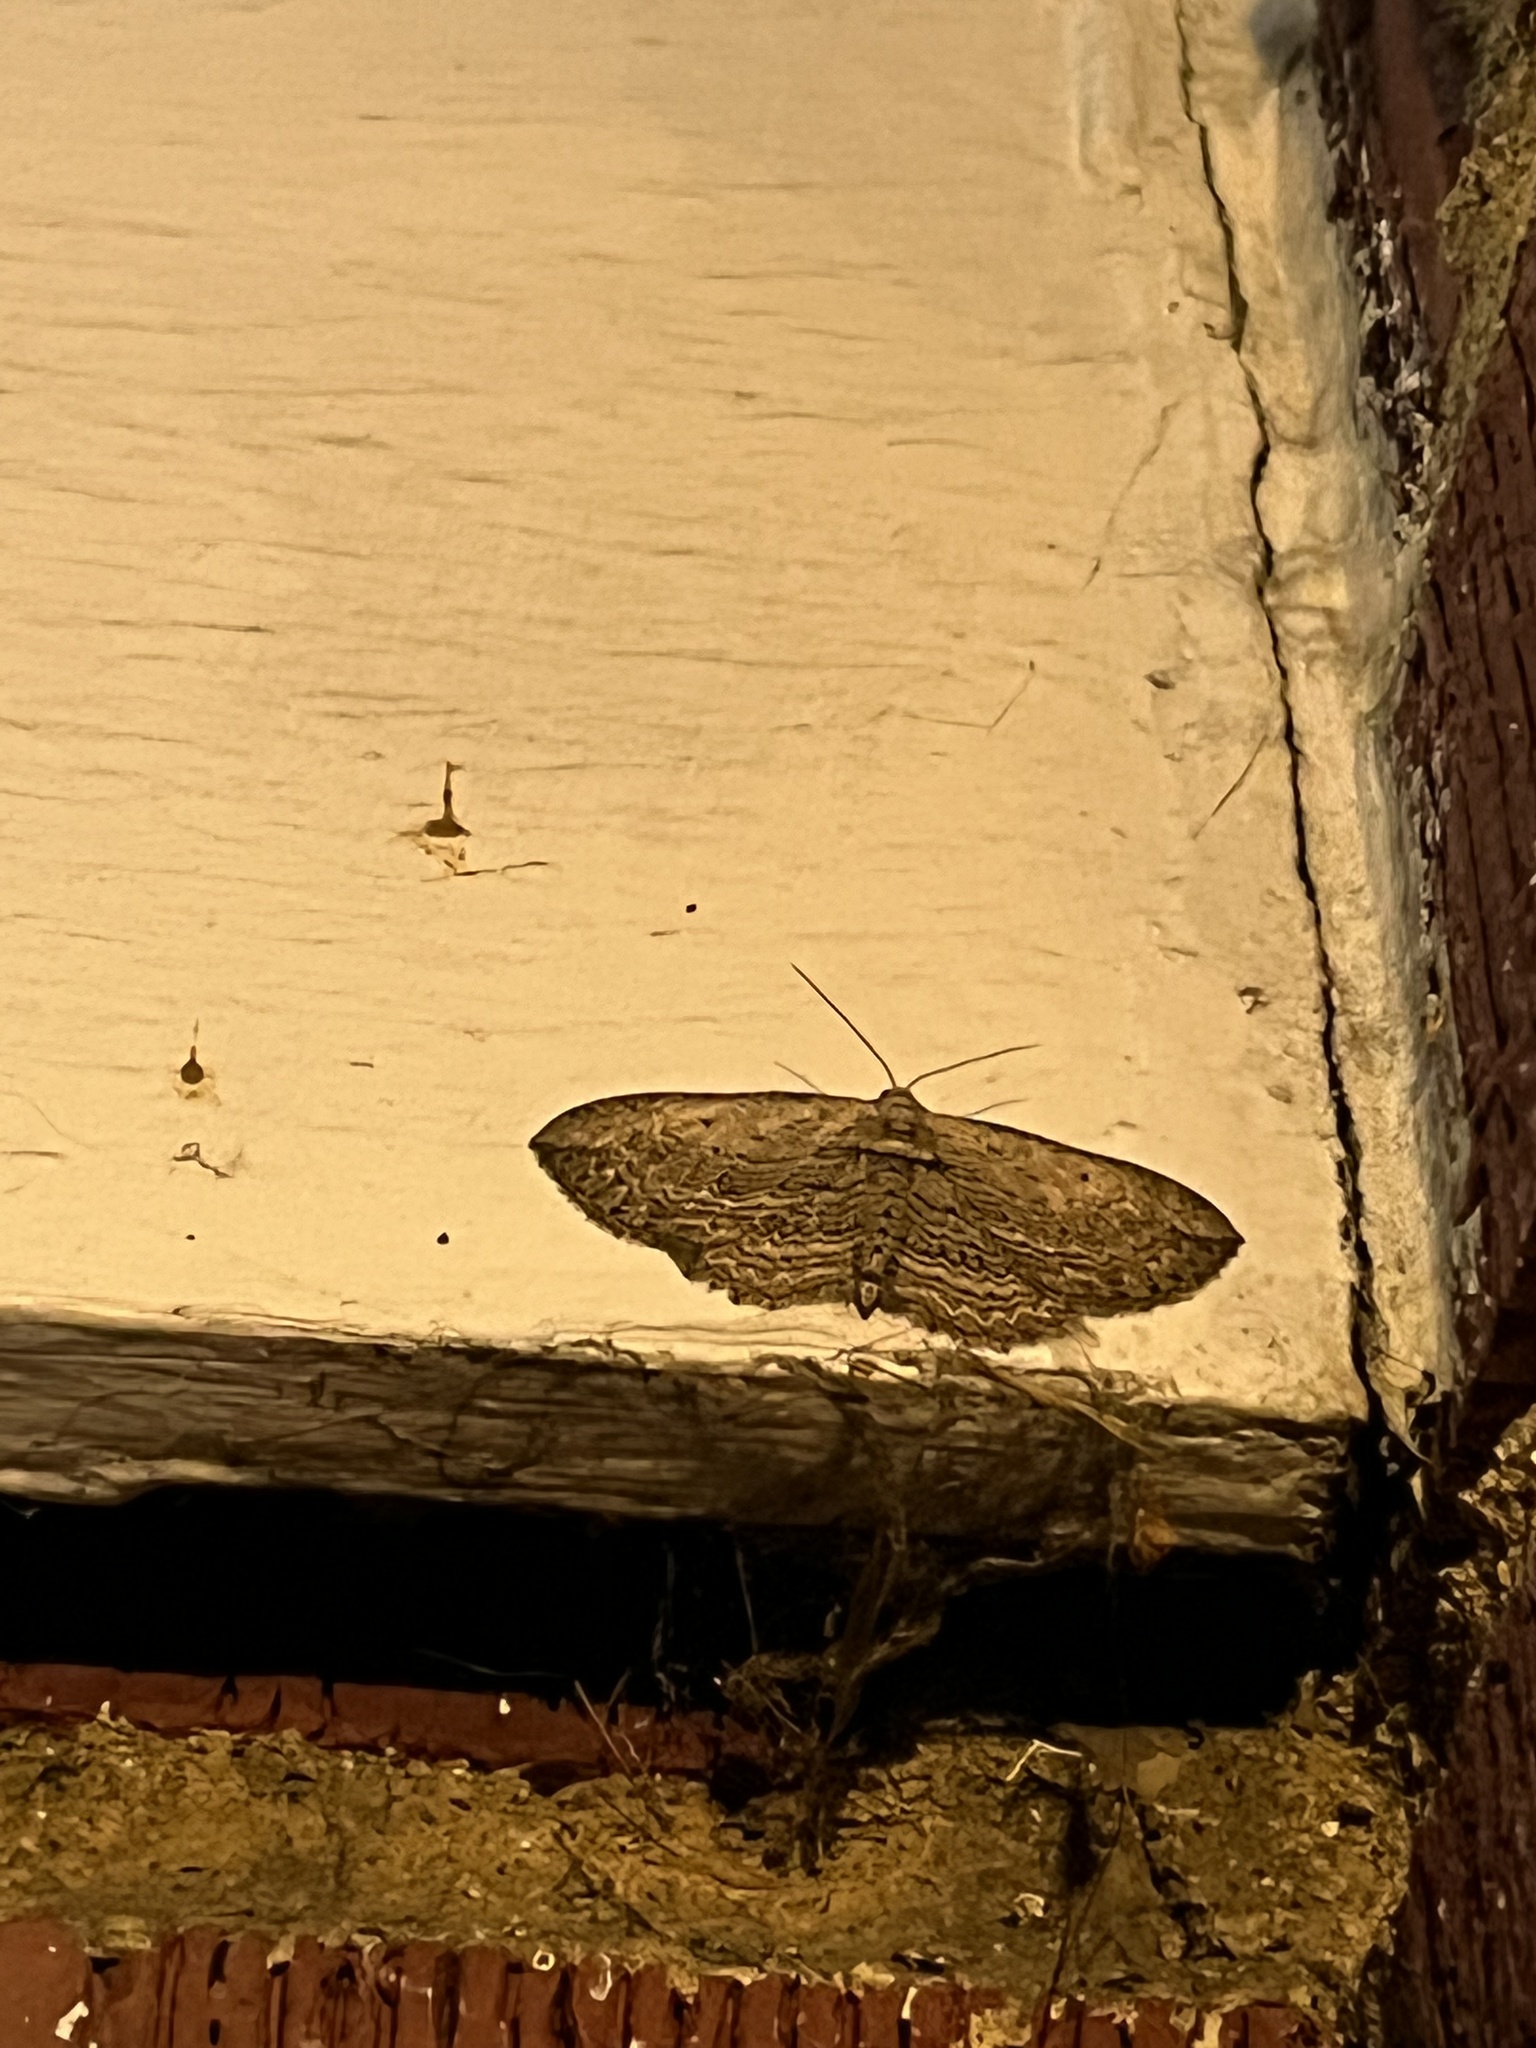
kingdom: Animalia
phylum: Arthropoda
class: Insecta
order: Lepidoptera
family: Geometridae
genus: Horisme
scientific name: Horisme intestinata
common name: Brown bark carpet
